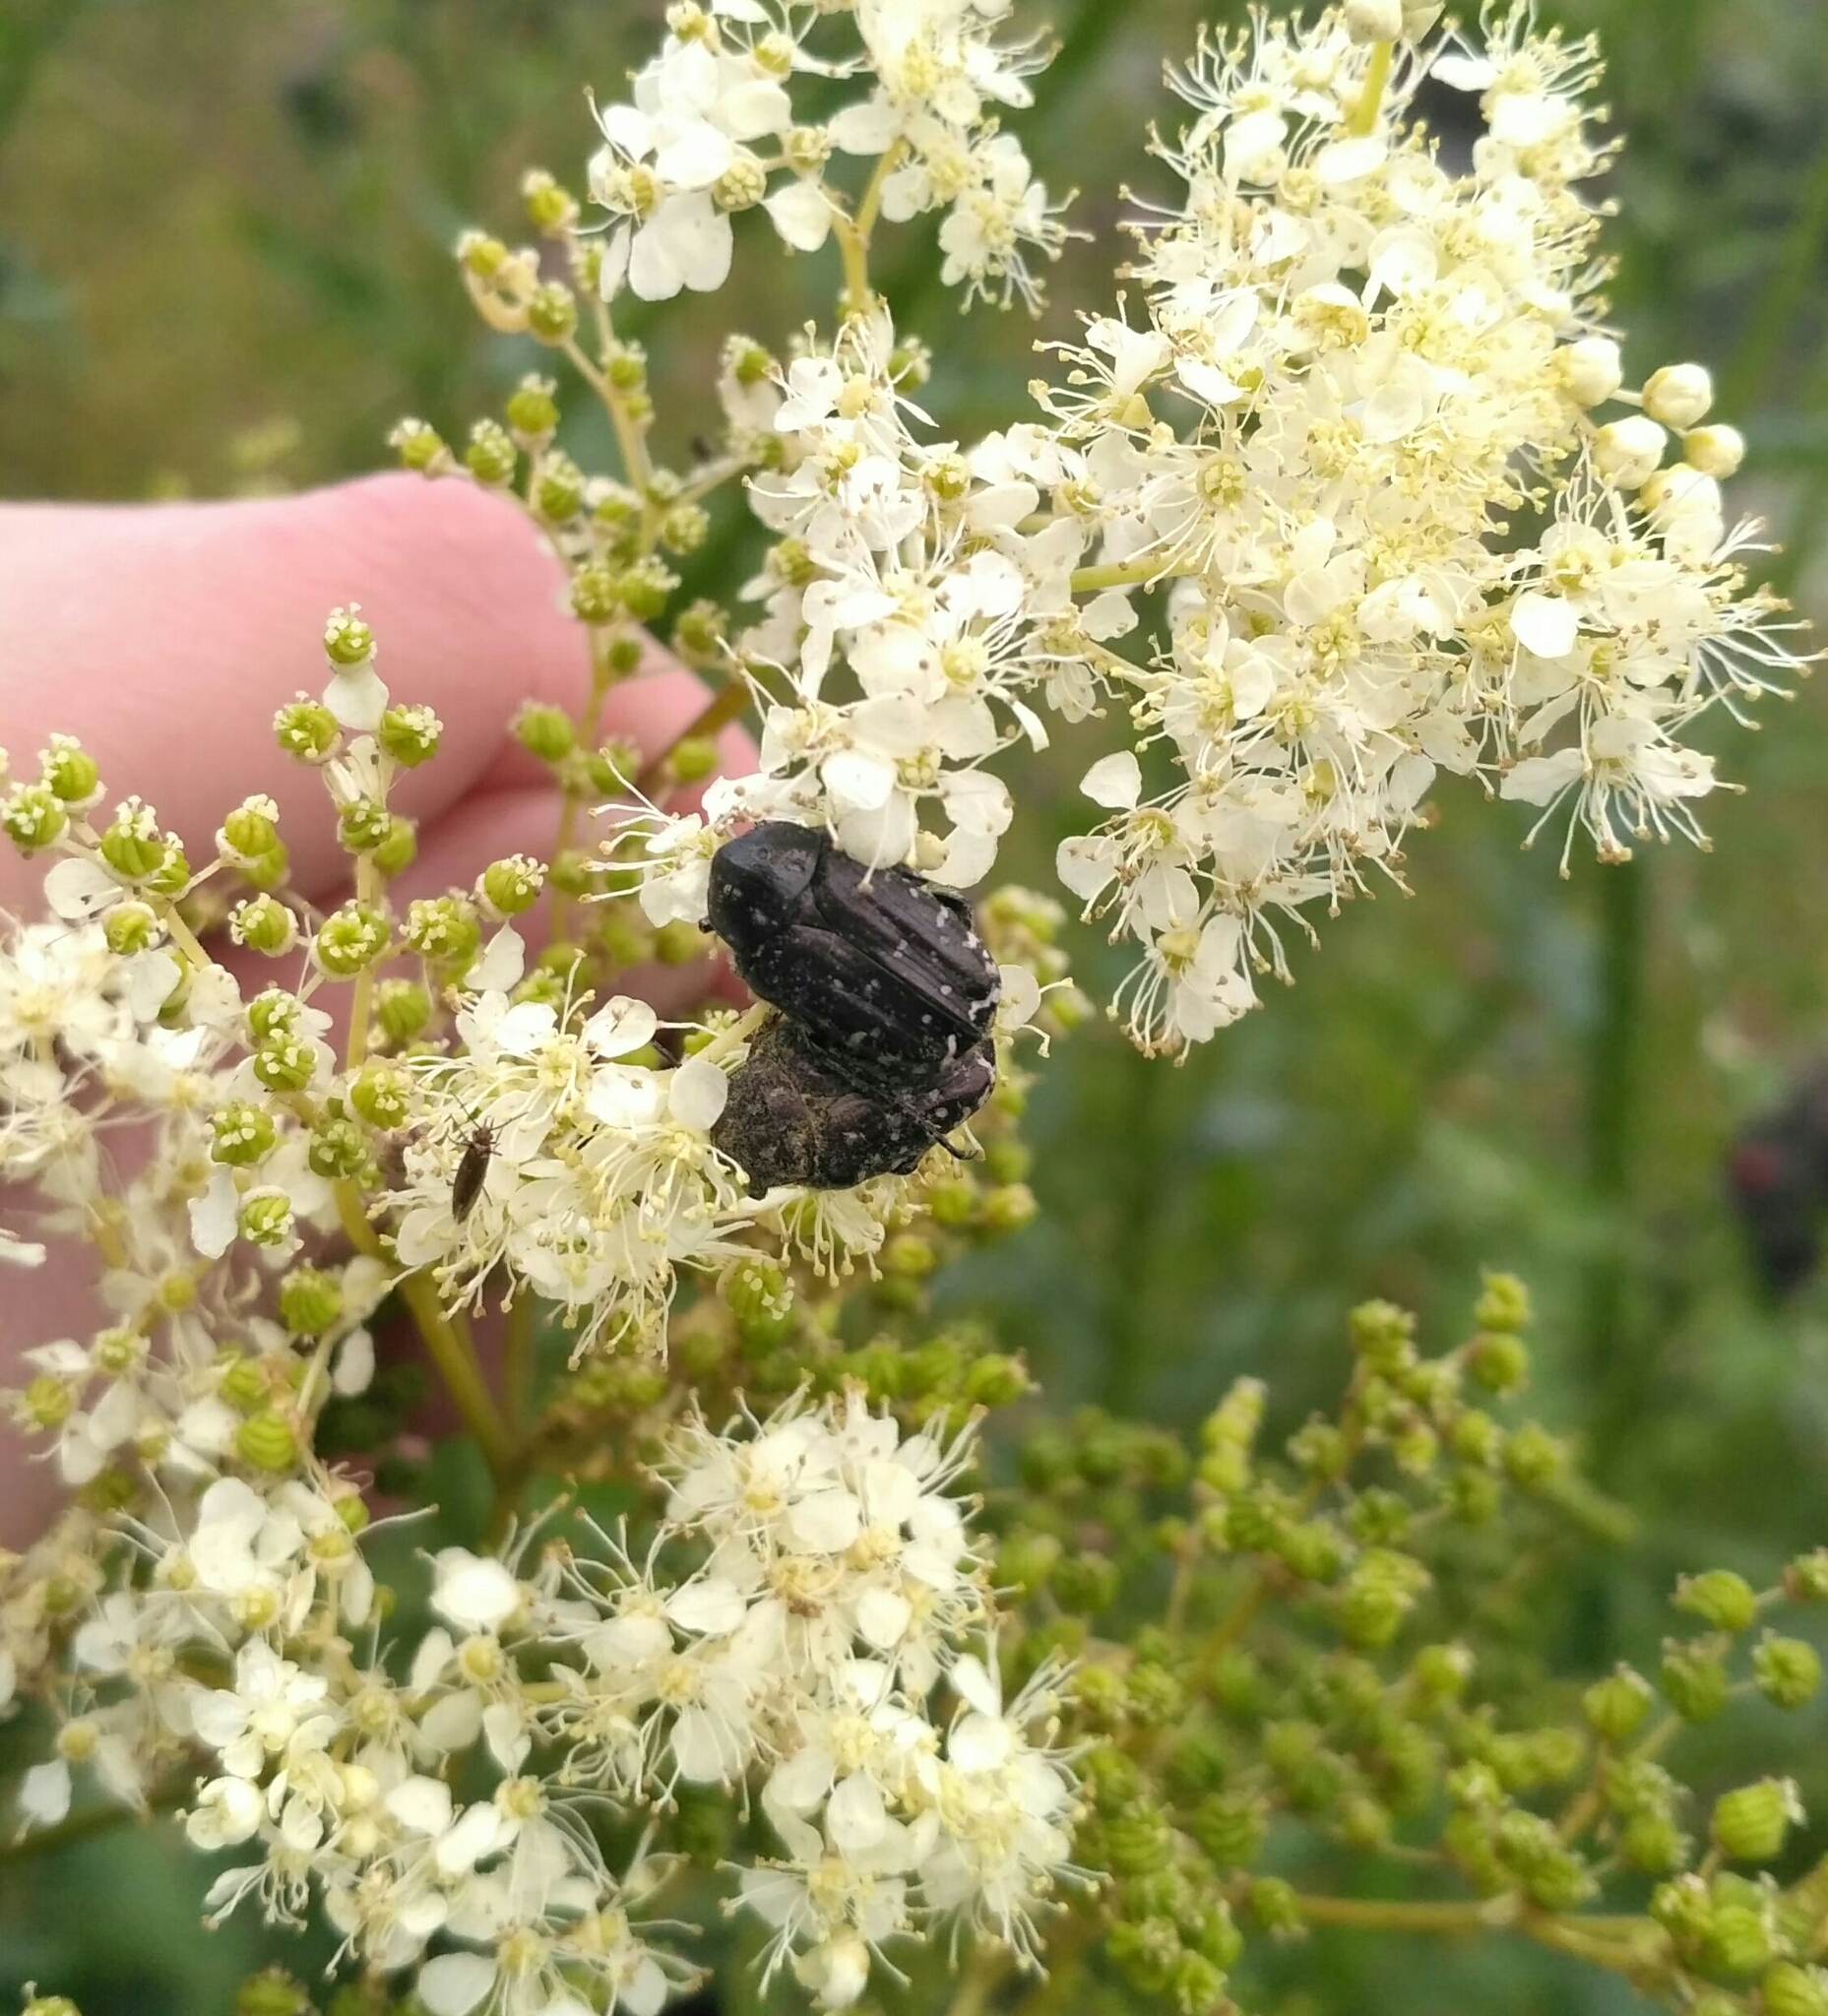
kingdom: Animalia
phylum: Arthropoda
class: Insecta
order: Coleoptera
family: Scarabaeidae
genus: Oxythyrea
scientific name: Oxythyrea funesta
